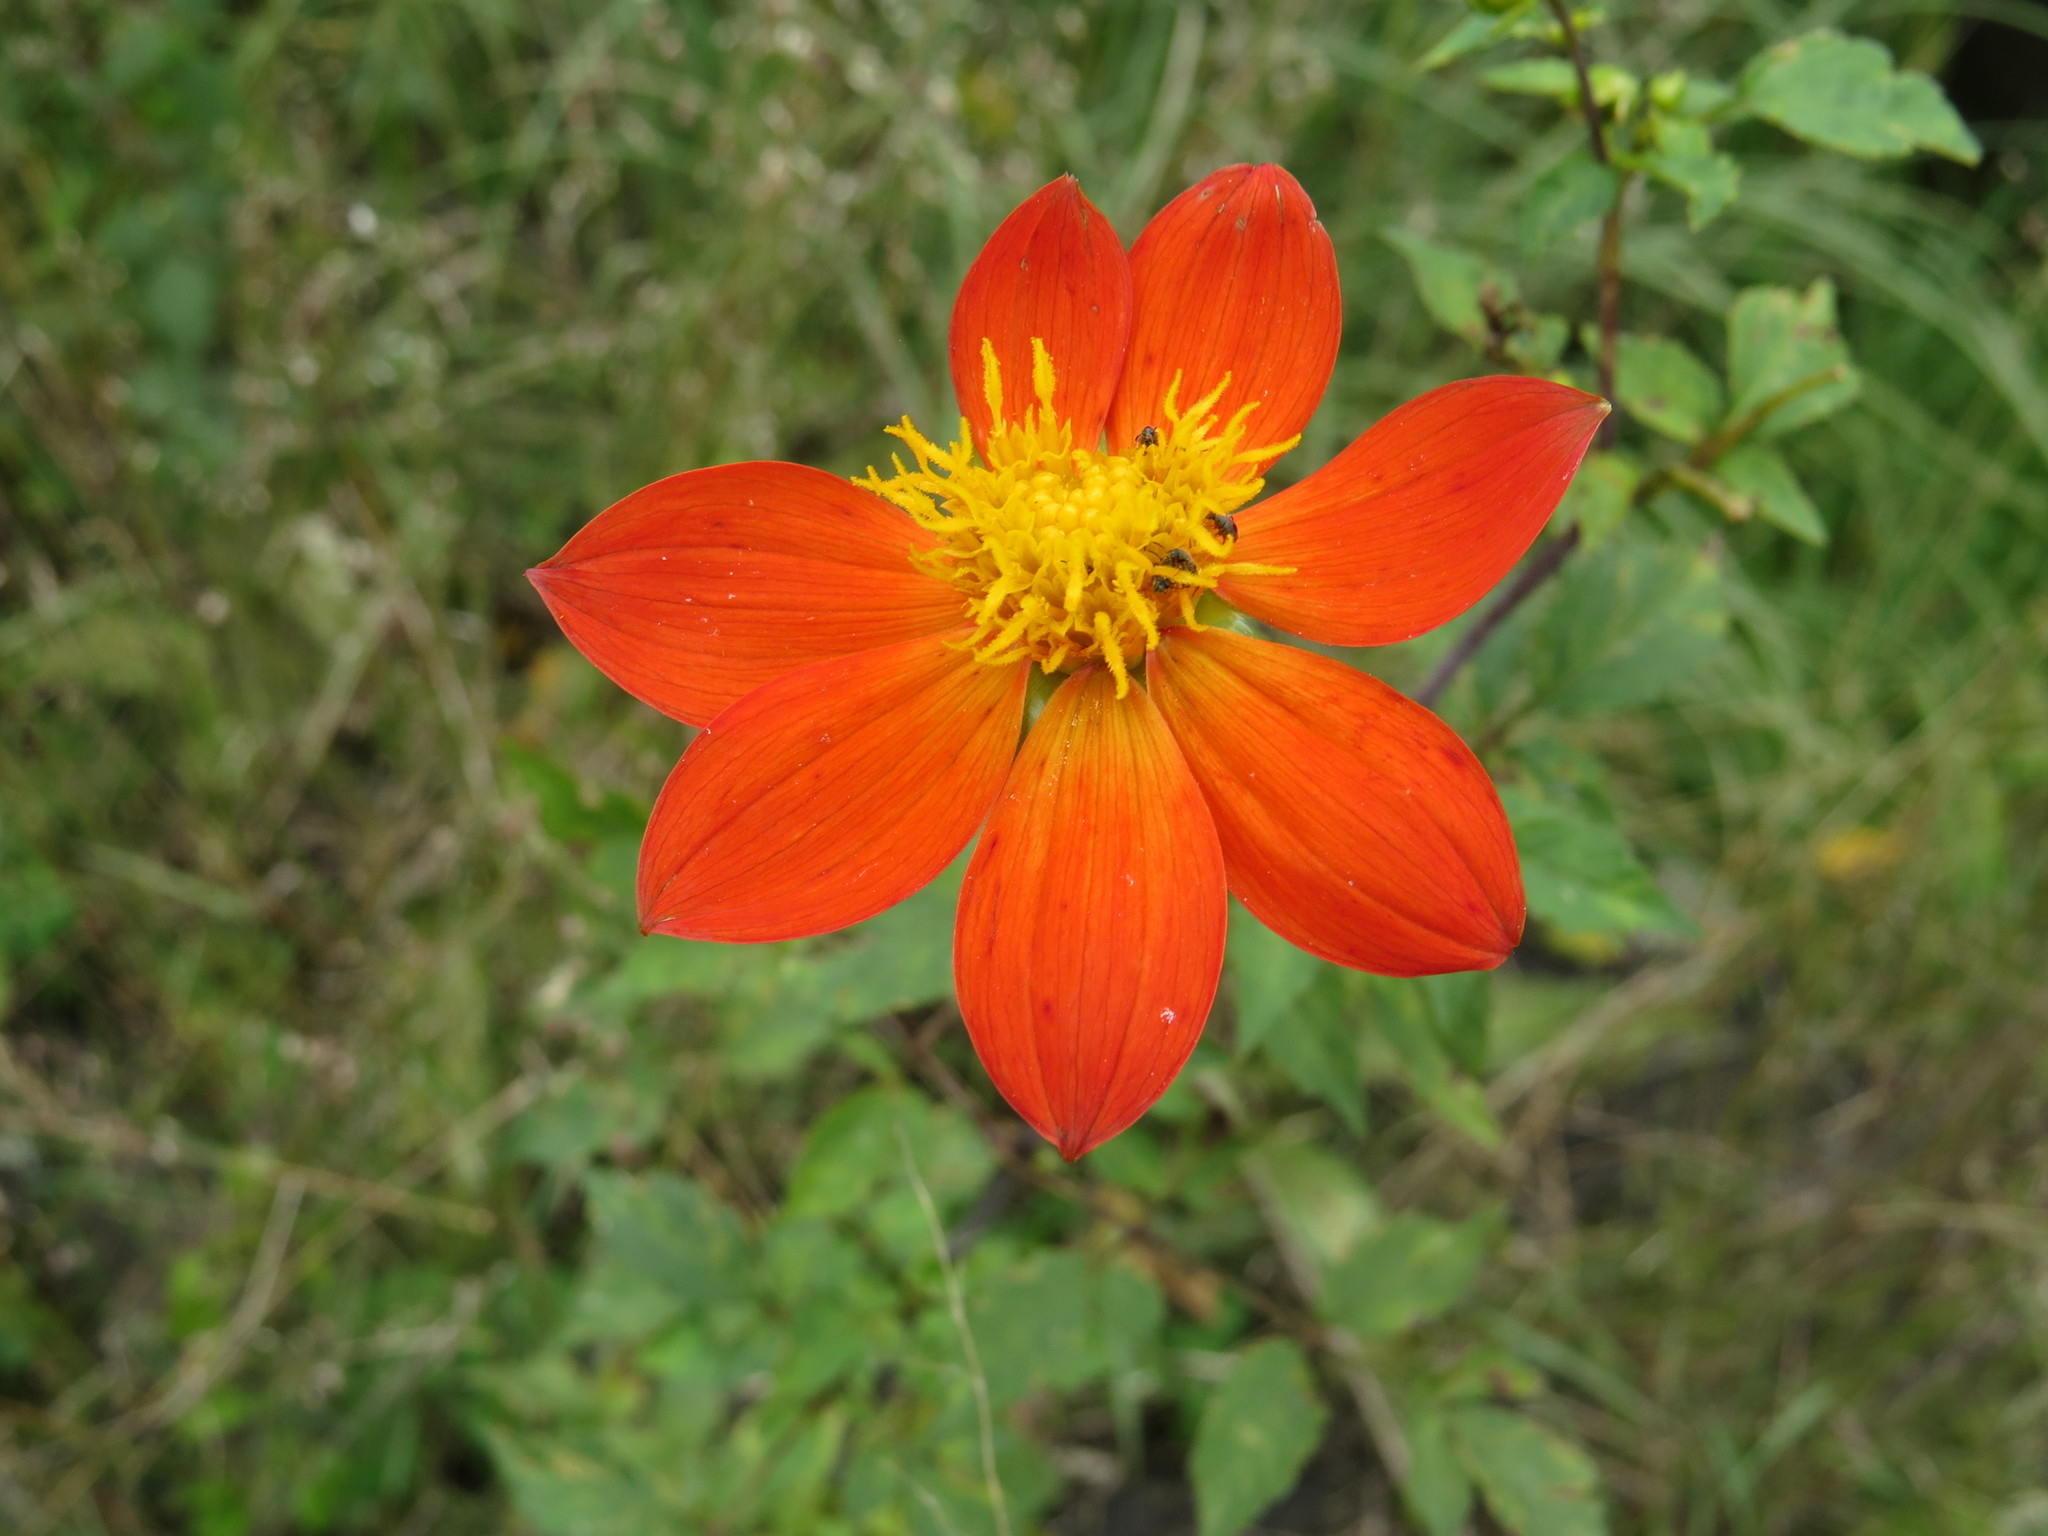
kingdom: Plantae
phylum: Tracheophyta
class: Magnoliopsida
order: Asterales
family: Asteraceae
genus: Dahlia
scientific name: Dahlia coccinea
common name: Red dahlia
